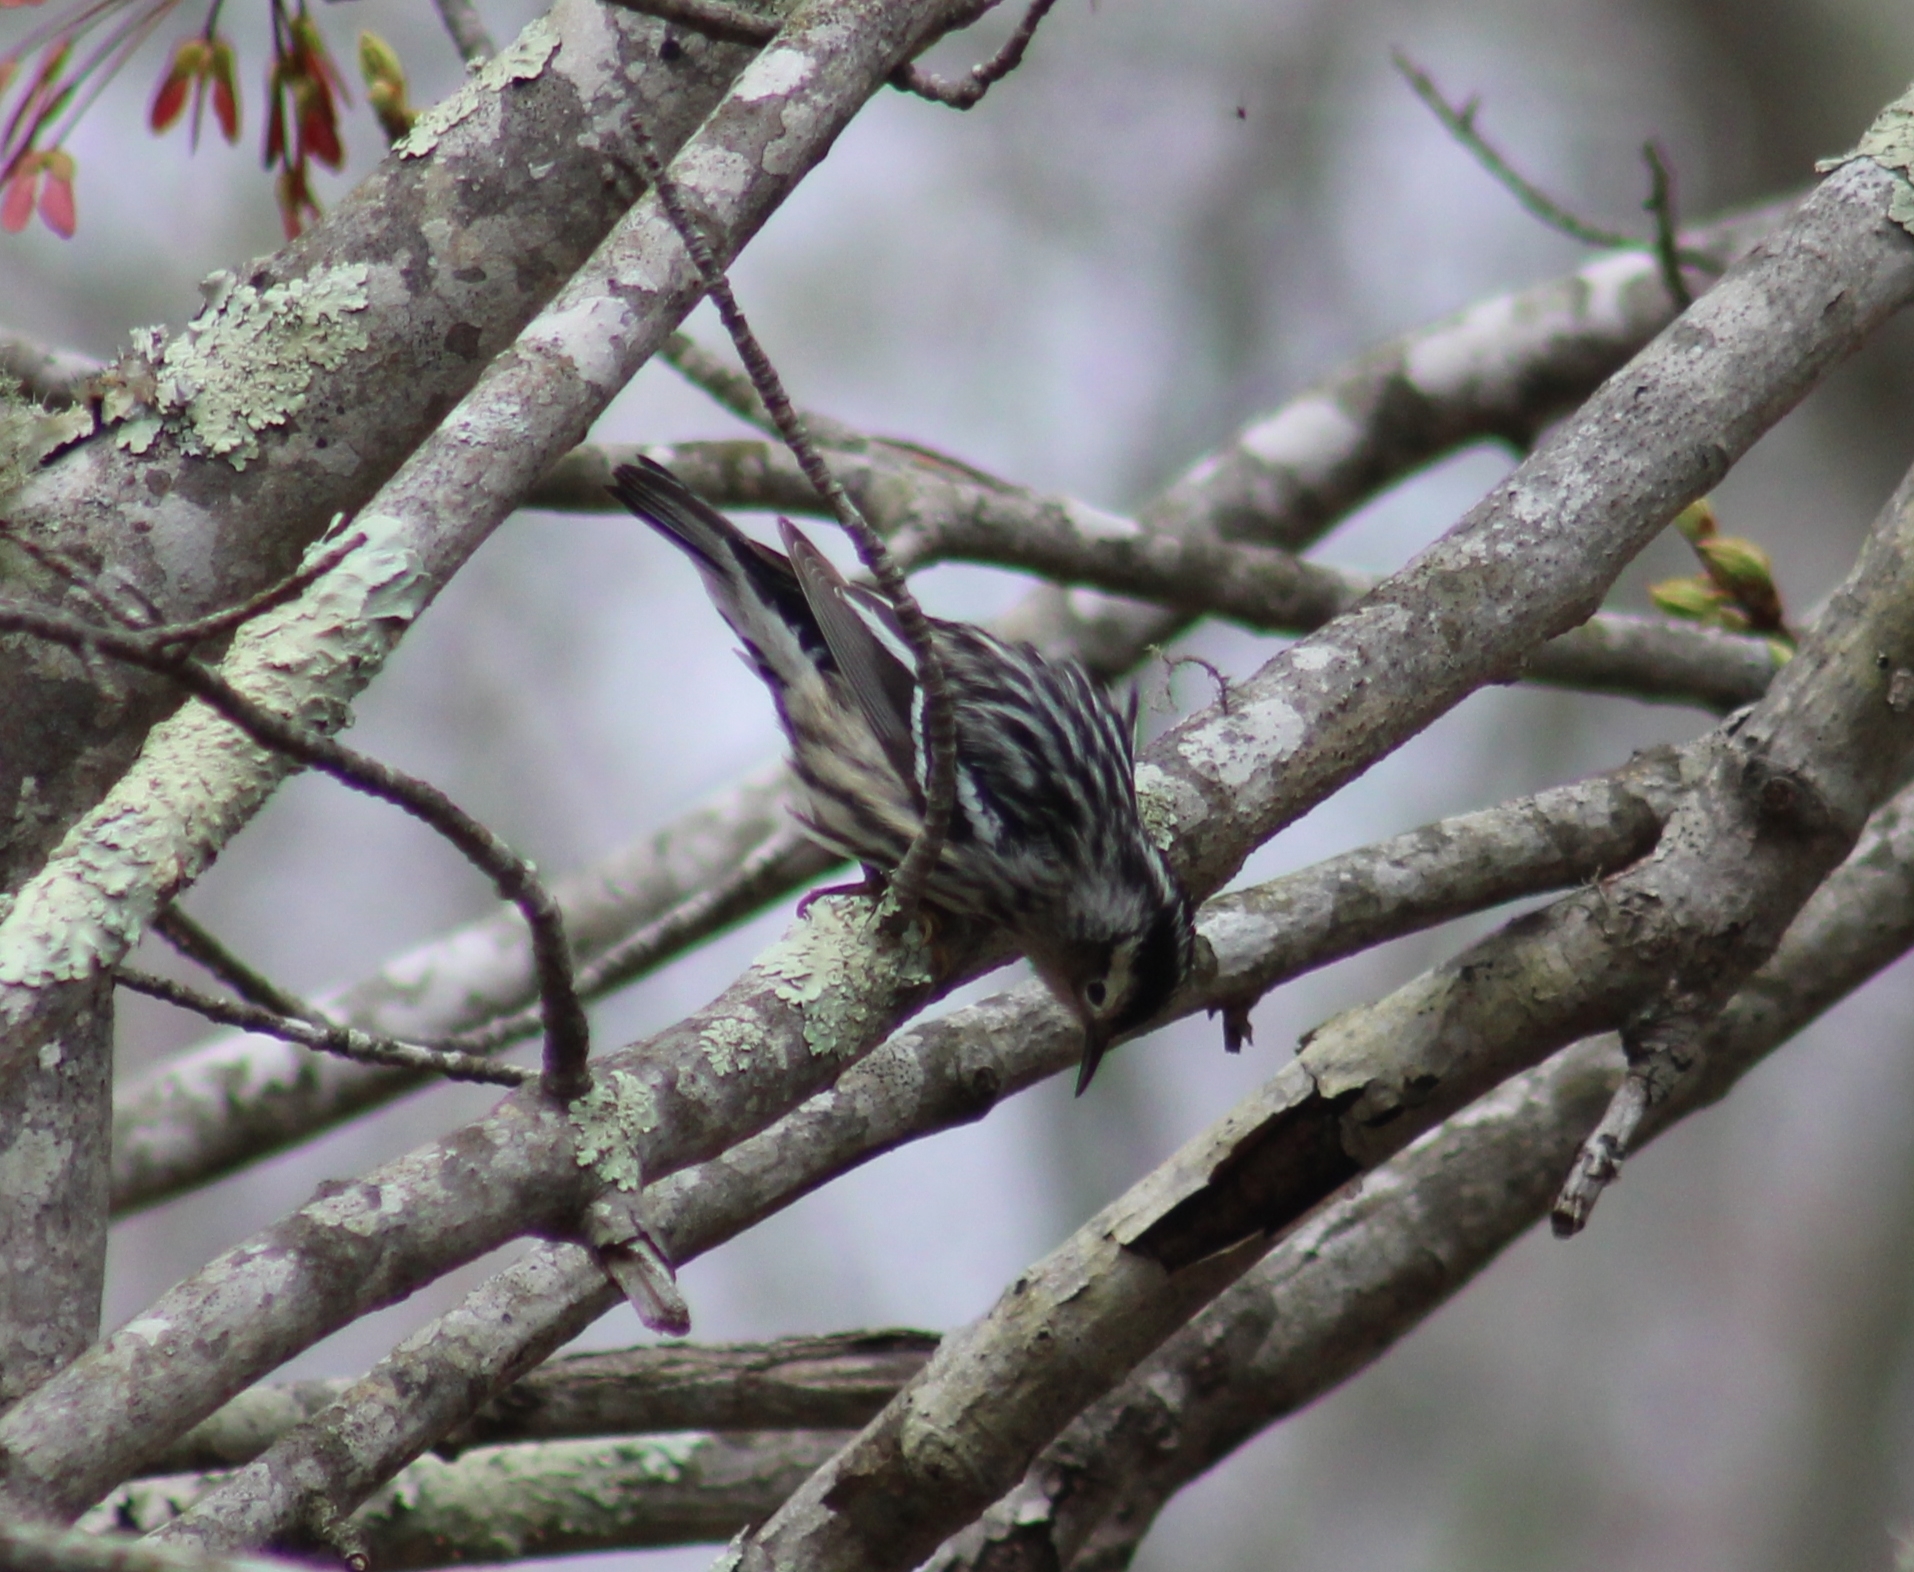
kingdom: Animalia
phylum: Chordata
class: Aves
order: Passeriformes
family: Parulidae
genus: Mniotilta
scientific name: Mniotilta varia
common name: Black-and-white warbler
